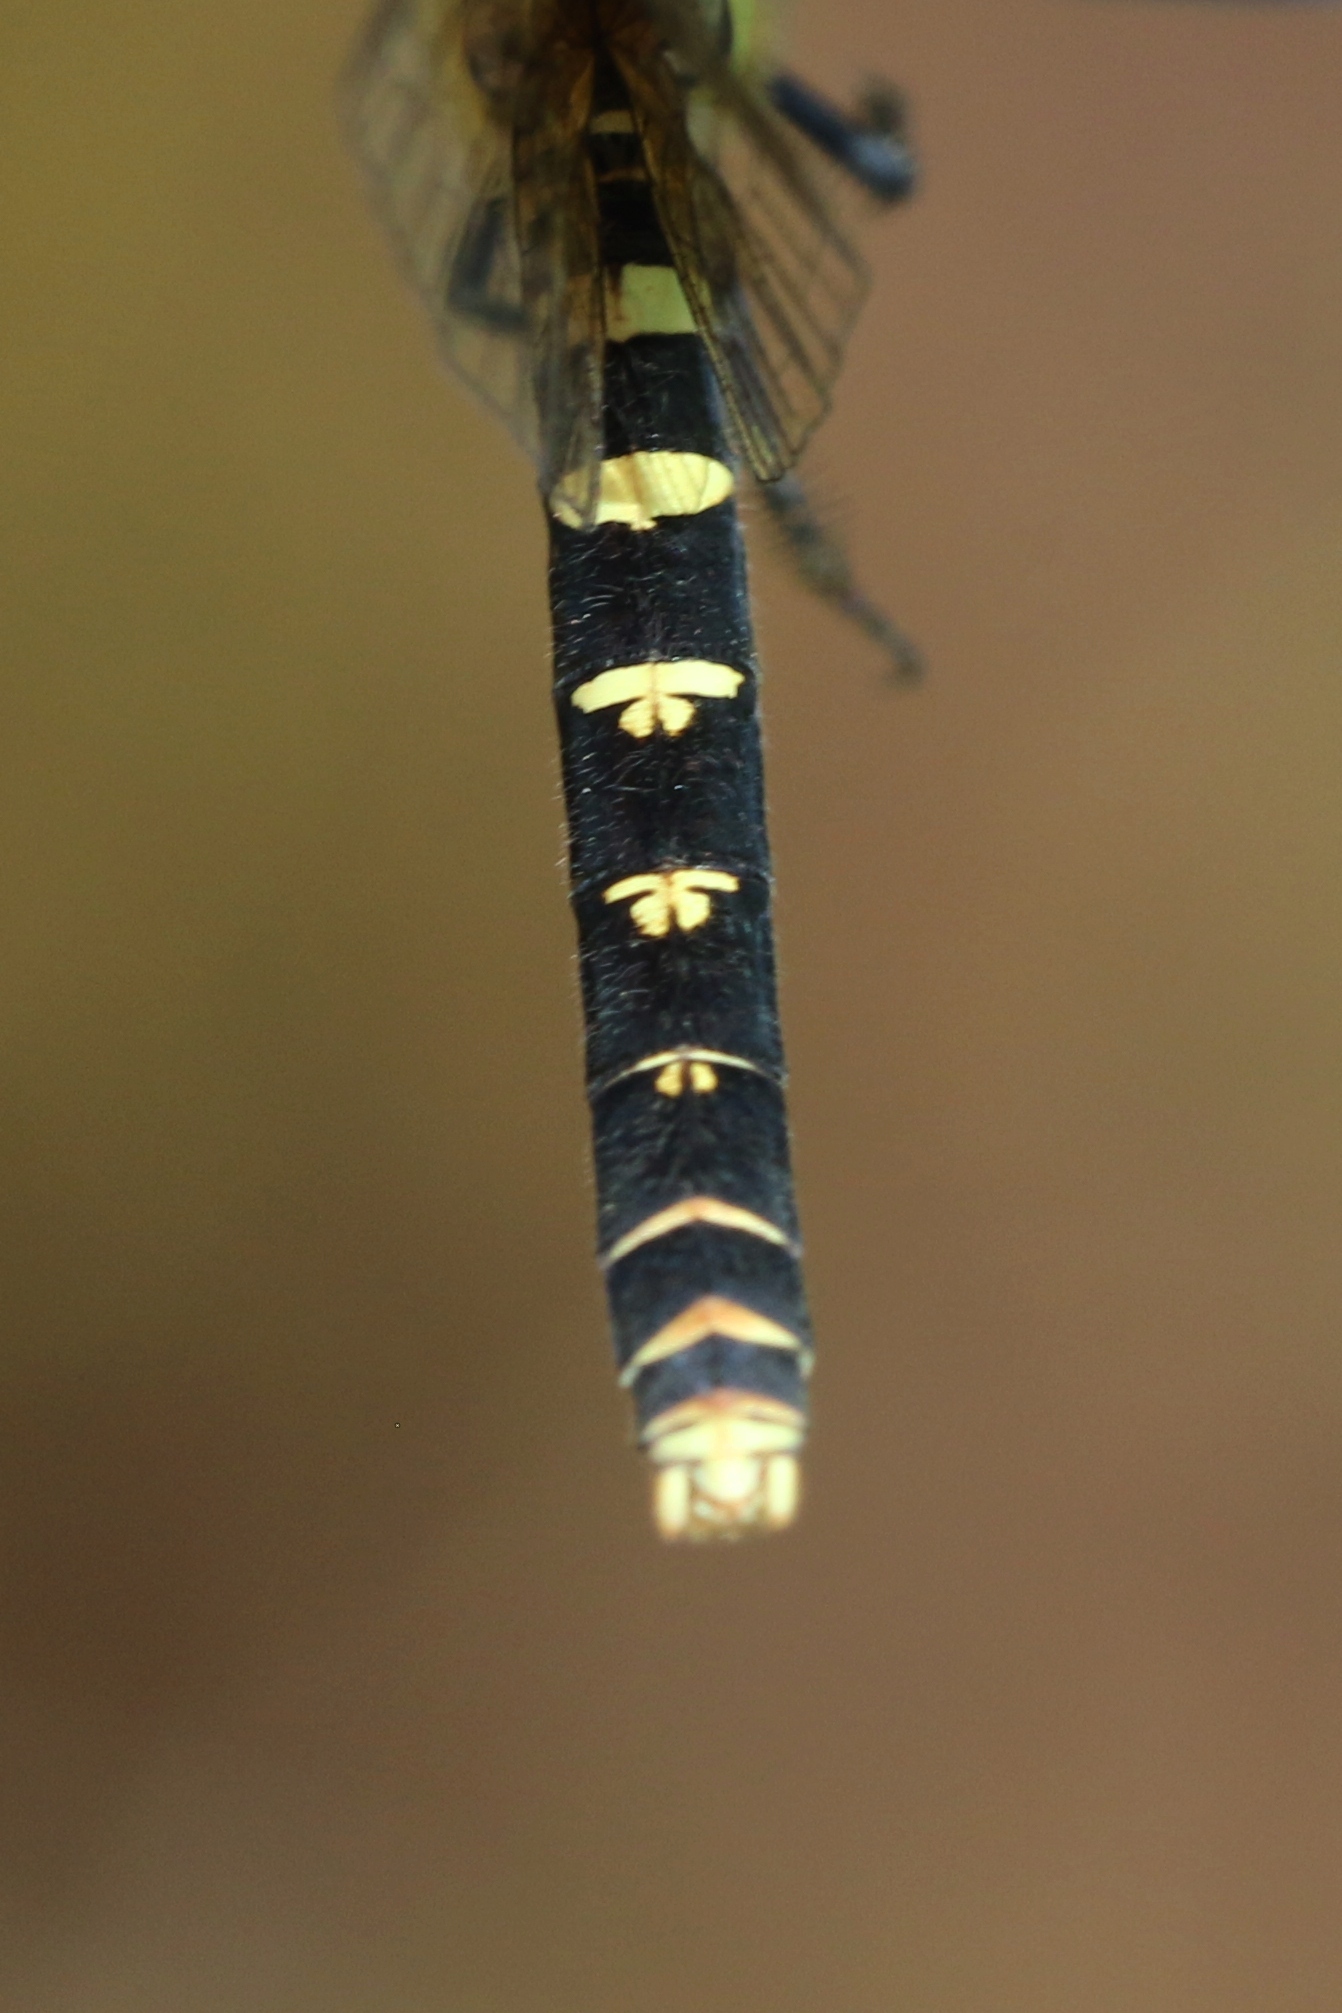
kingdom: Animalia
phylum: Arthropoda
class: Insecta
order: Odonata
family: Libellulidae
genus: Nannothemis
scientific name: Nannothemis bella
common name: Elfin skimmer
